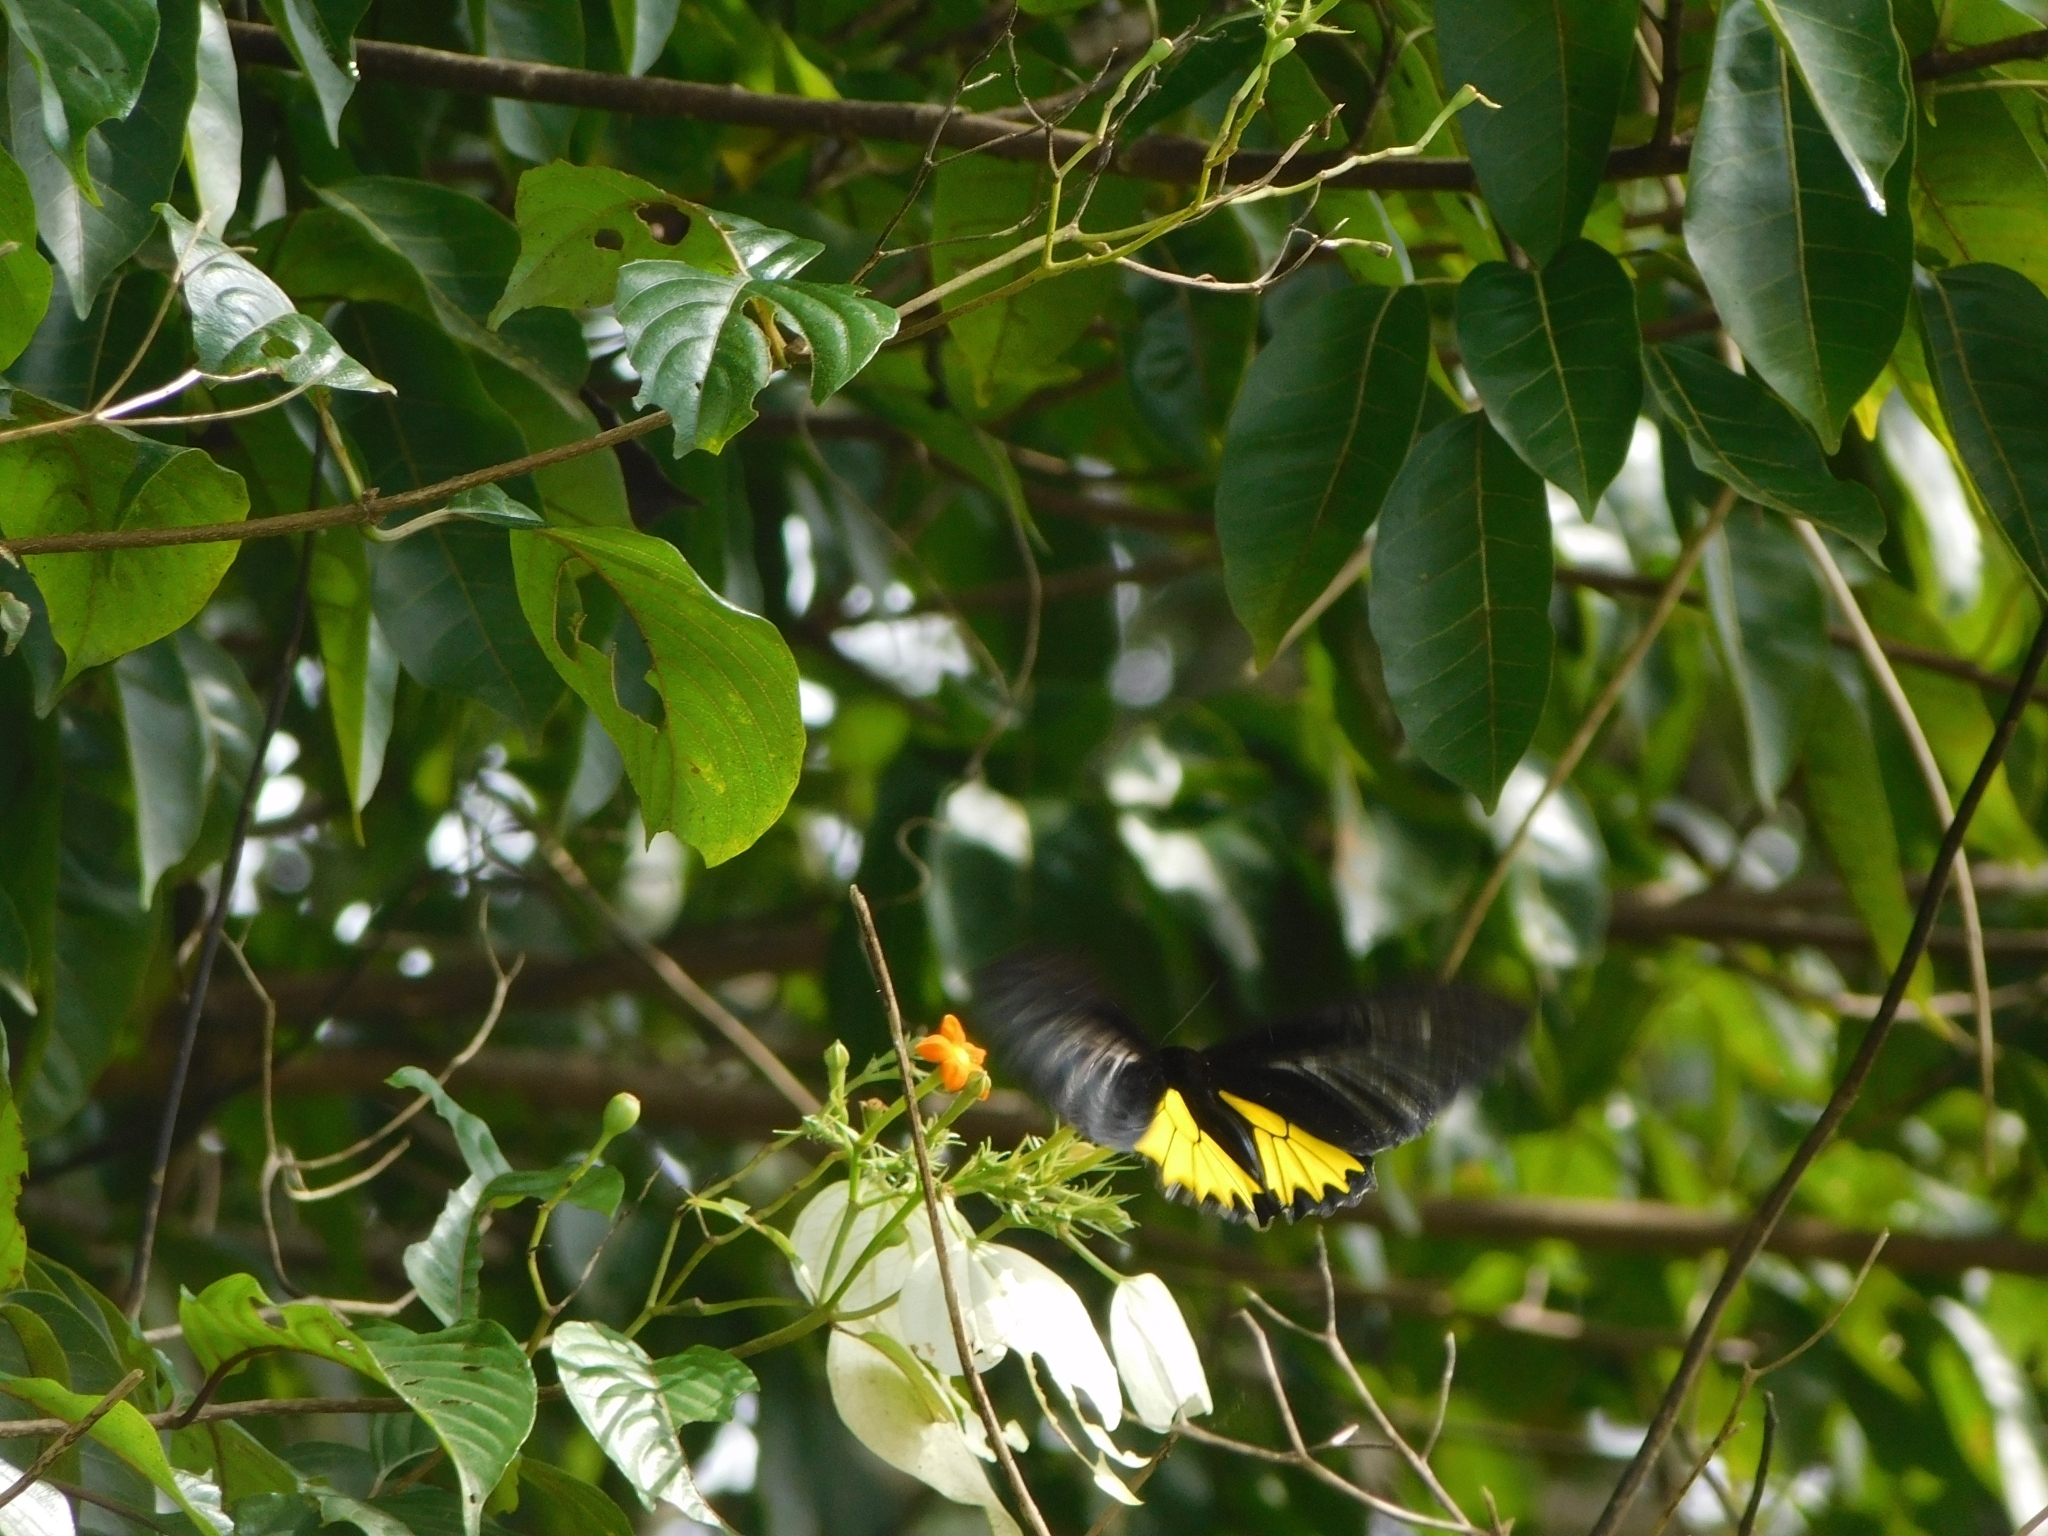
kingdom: Animalia
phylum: Arthropoda
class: Insecta
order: Lepidoptera
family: Papilionidae
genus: Troides
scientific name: Troides minos
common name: Malabar birdwing
